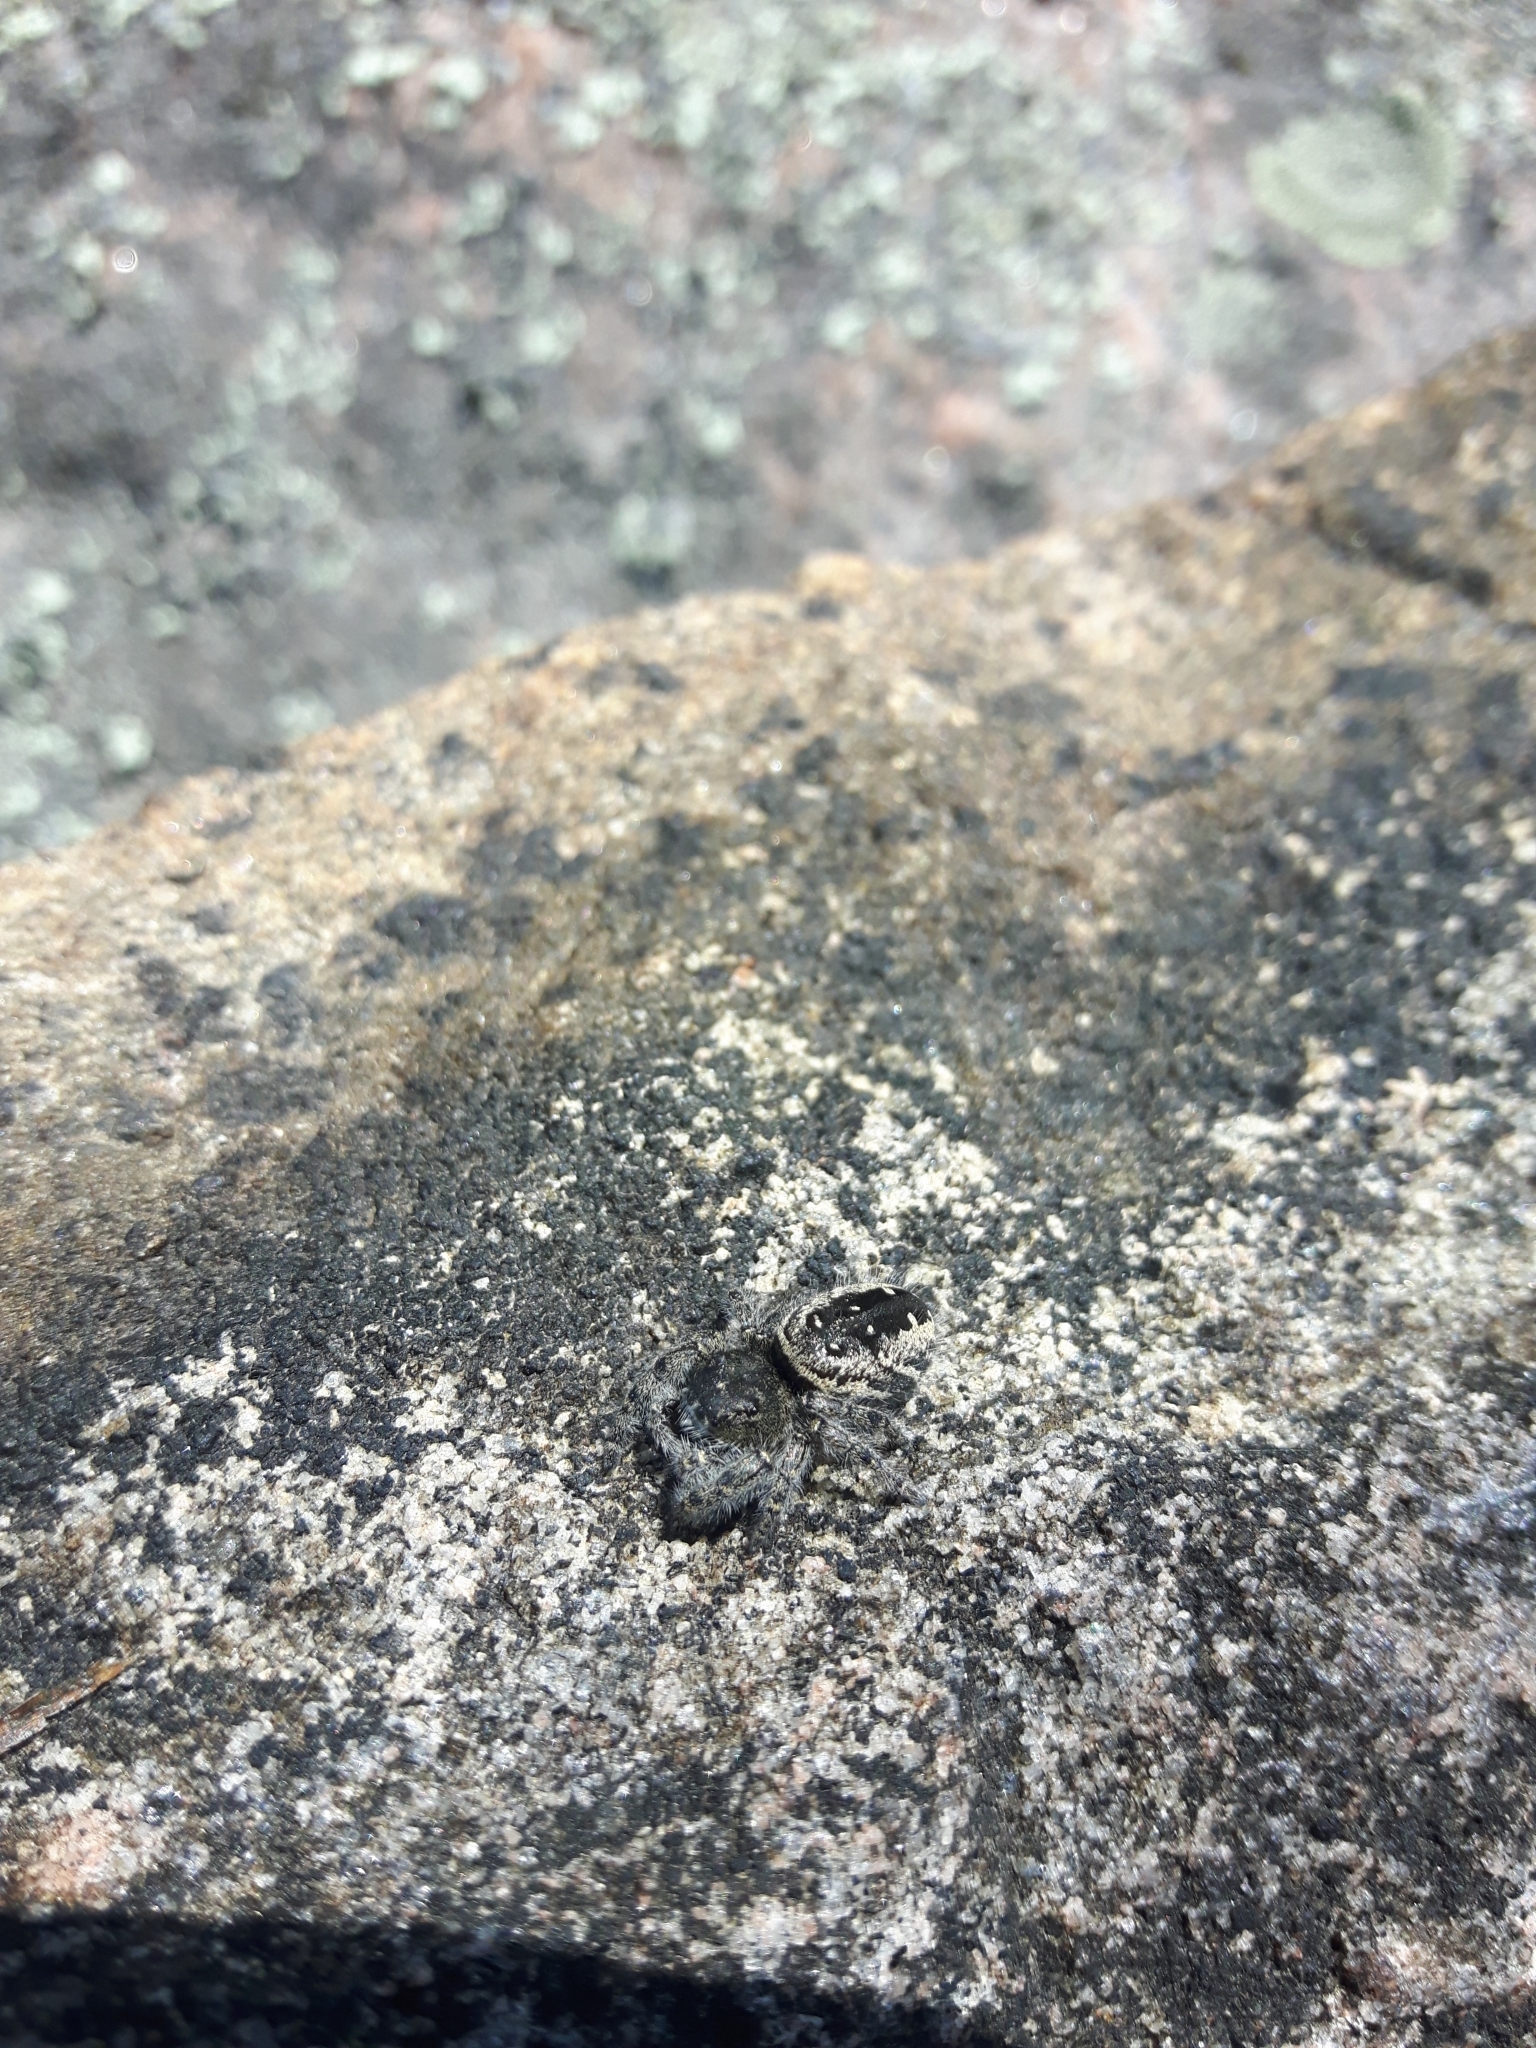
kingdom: Animalia
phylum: Arthropoda
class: Arachnida
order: Araneae
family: Salticidae
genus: Phidippus
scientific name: Phidippus purpuratus
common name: Marbled purple jumping spider
